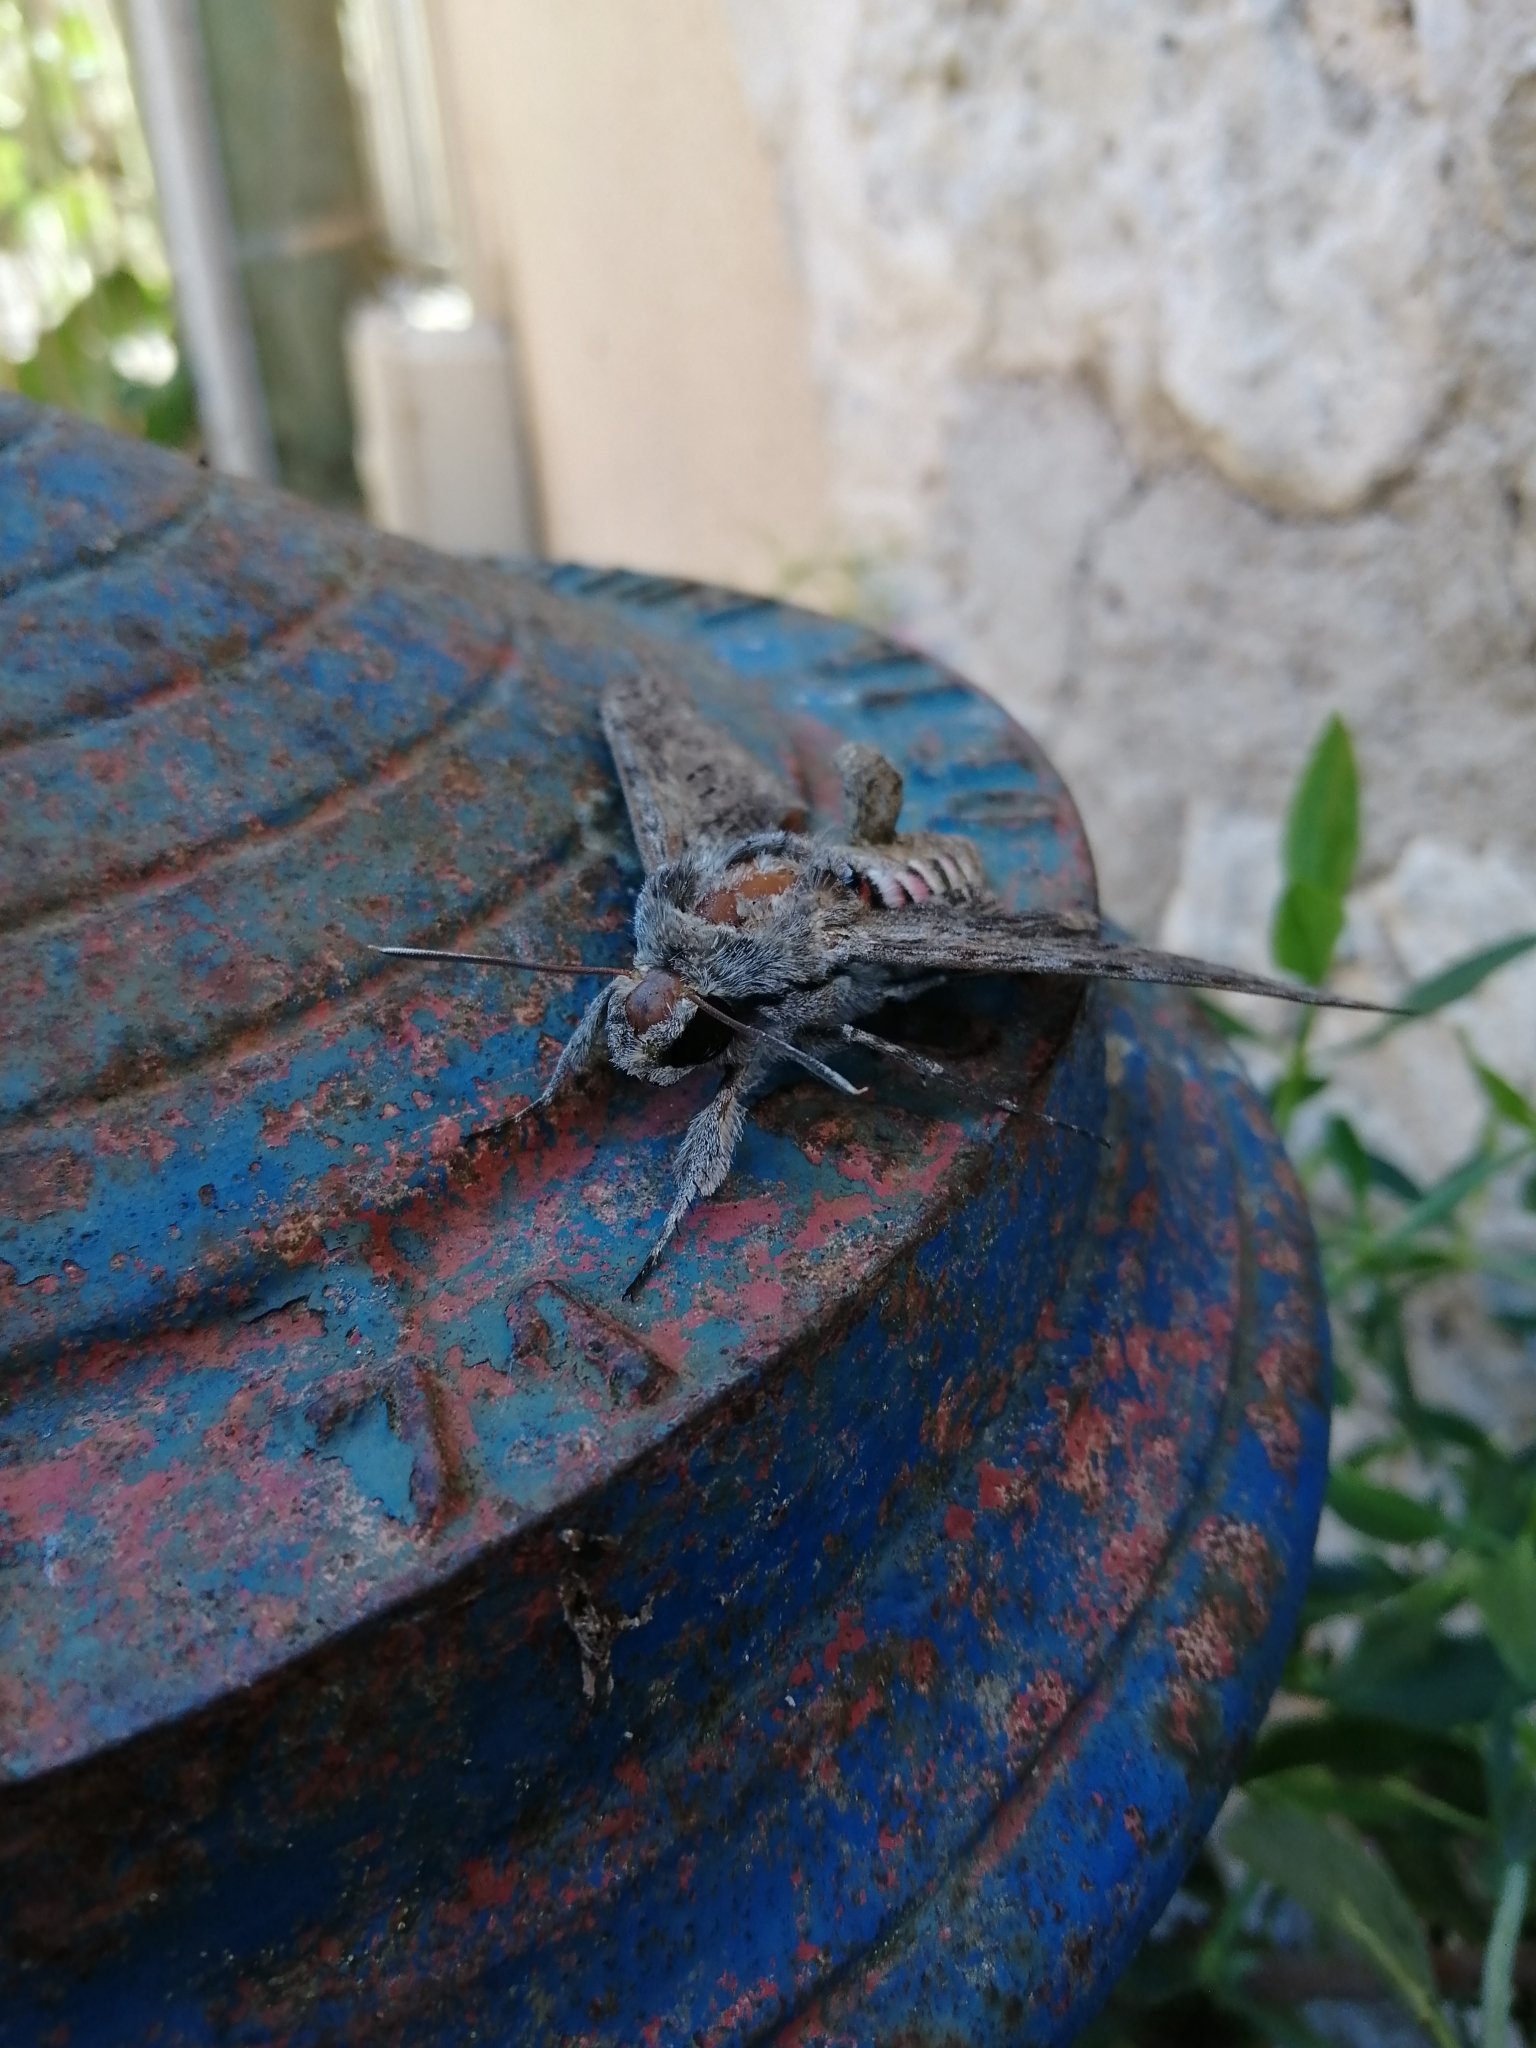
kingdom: Animalia
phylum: Arthropoda
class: Insecta
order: Lepidoptera
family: Sphingidae
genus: Agrius
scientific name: Agrius convolvuli
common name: Convolvulus hawkmoth
